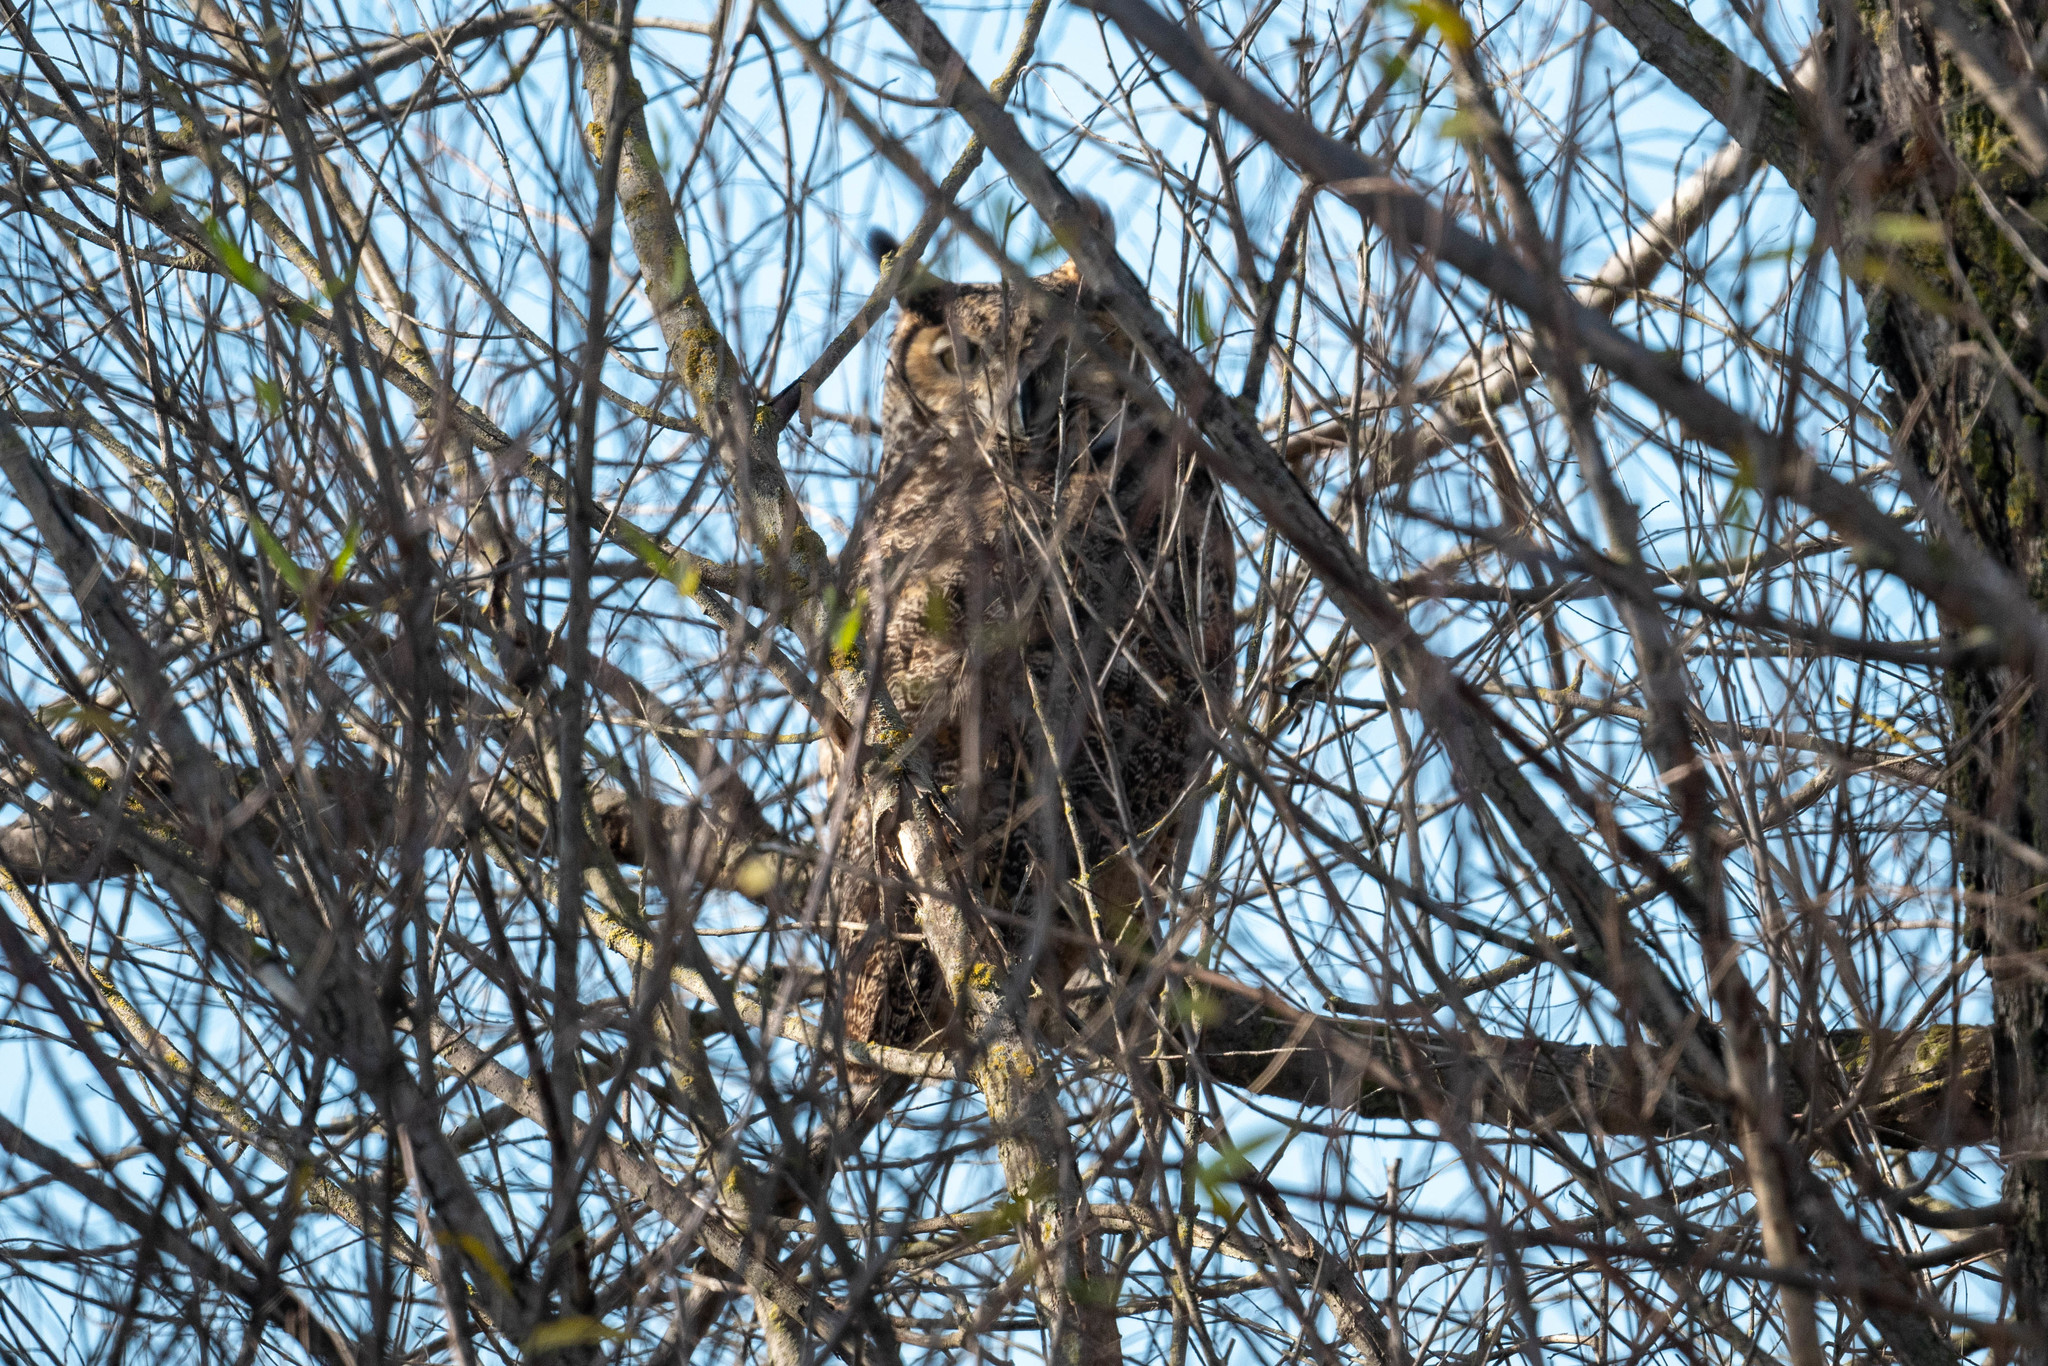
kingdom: Animalia
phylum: Chordata
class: Aves
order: Strigiformes
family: Strigidae
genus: Bubo
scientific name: Bubo virginianus
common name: Great horned owl
